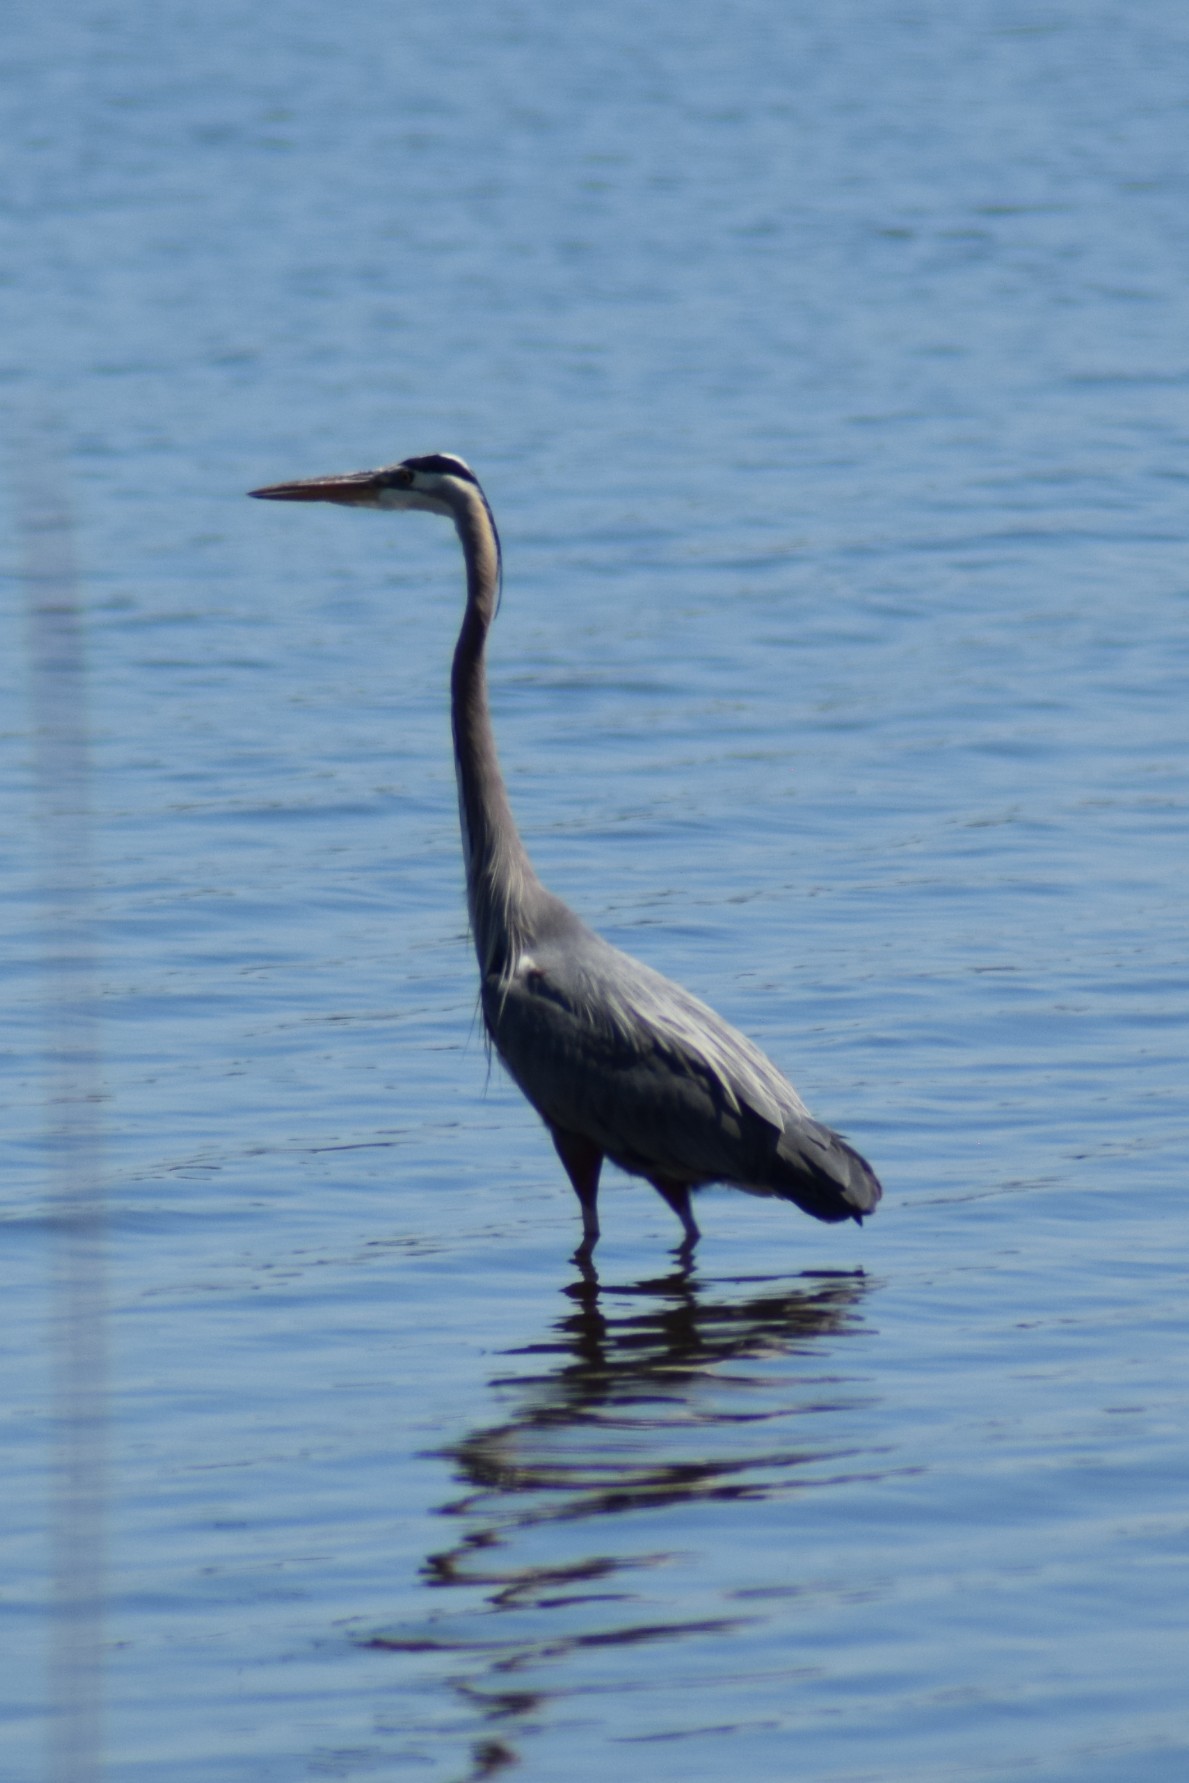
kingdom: Animalia
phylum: Chordata
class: Aves
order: Pelecaniformes
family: Ardeidae
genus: Ardea
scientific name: Ardea herodias
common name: Great blue heron
